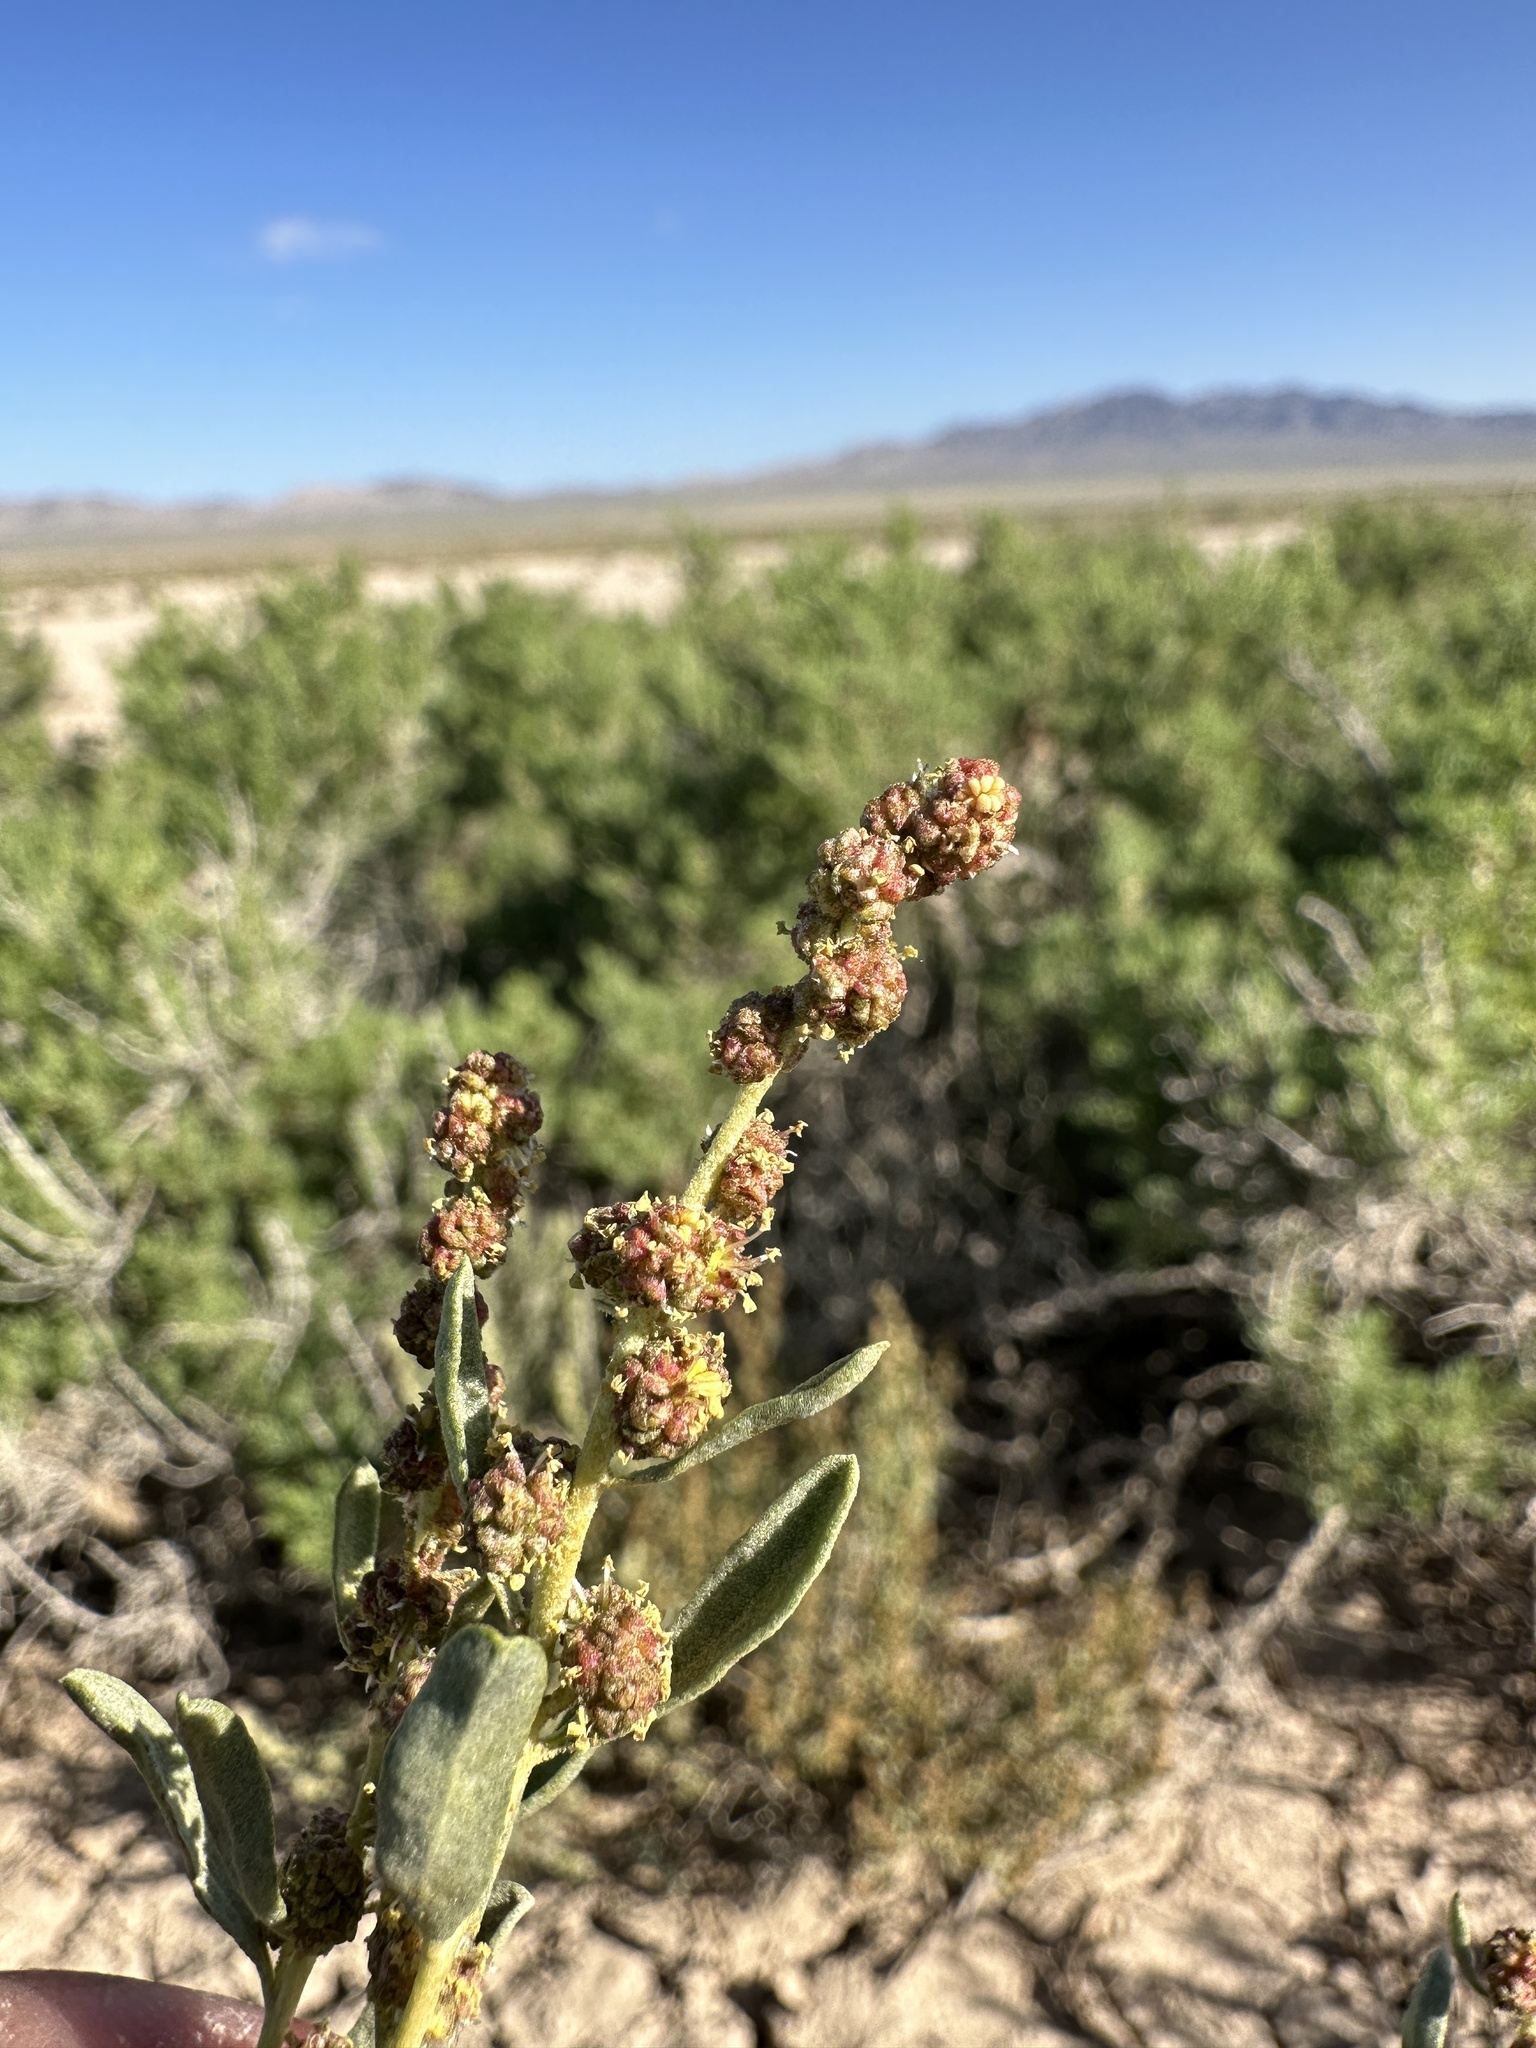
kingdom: Plantae
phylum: Tracheophyta
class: Magnoliopsida
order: Caryophyllales
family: Amaranthaceae
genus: Atriplex
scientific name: Atriplex gardneri
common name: Gardner's orache
